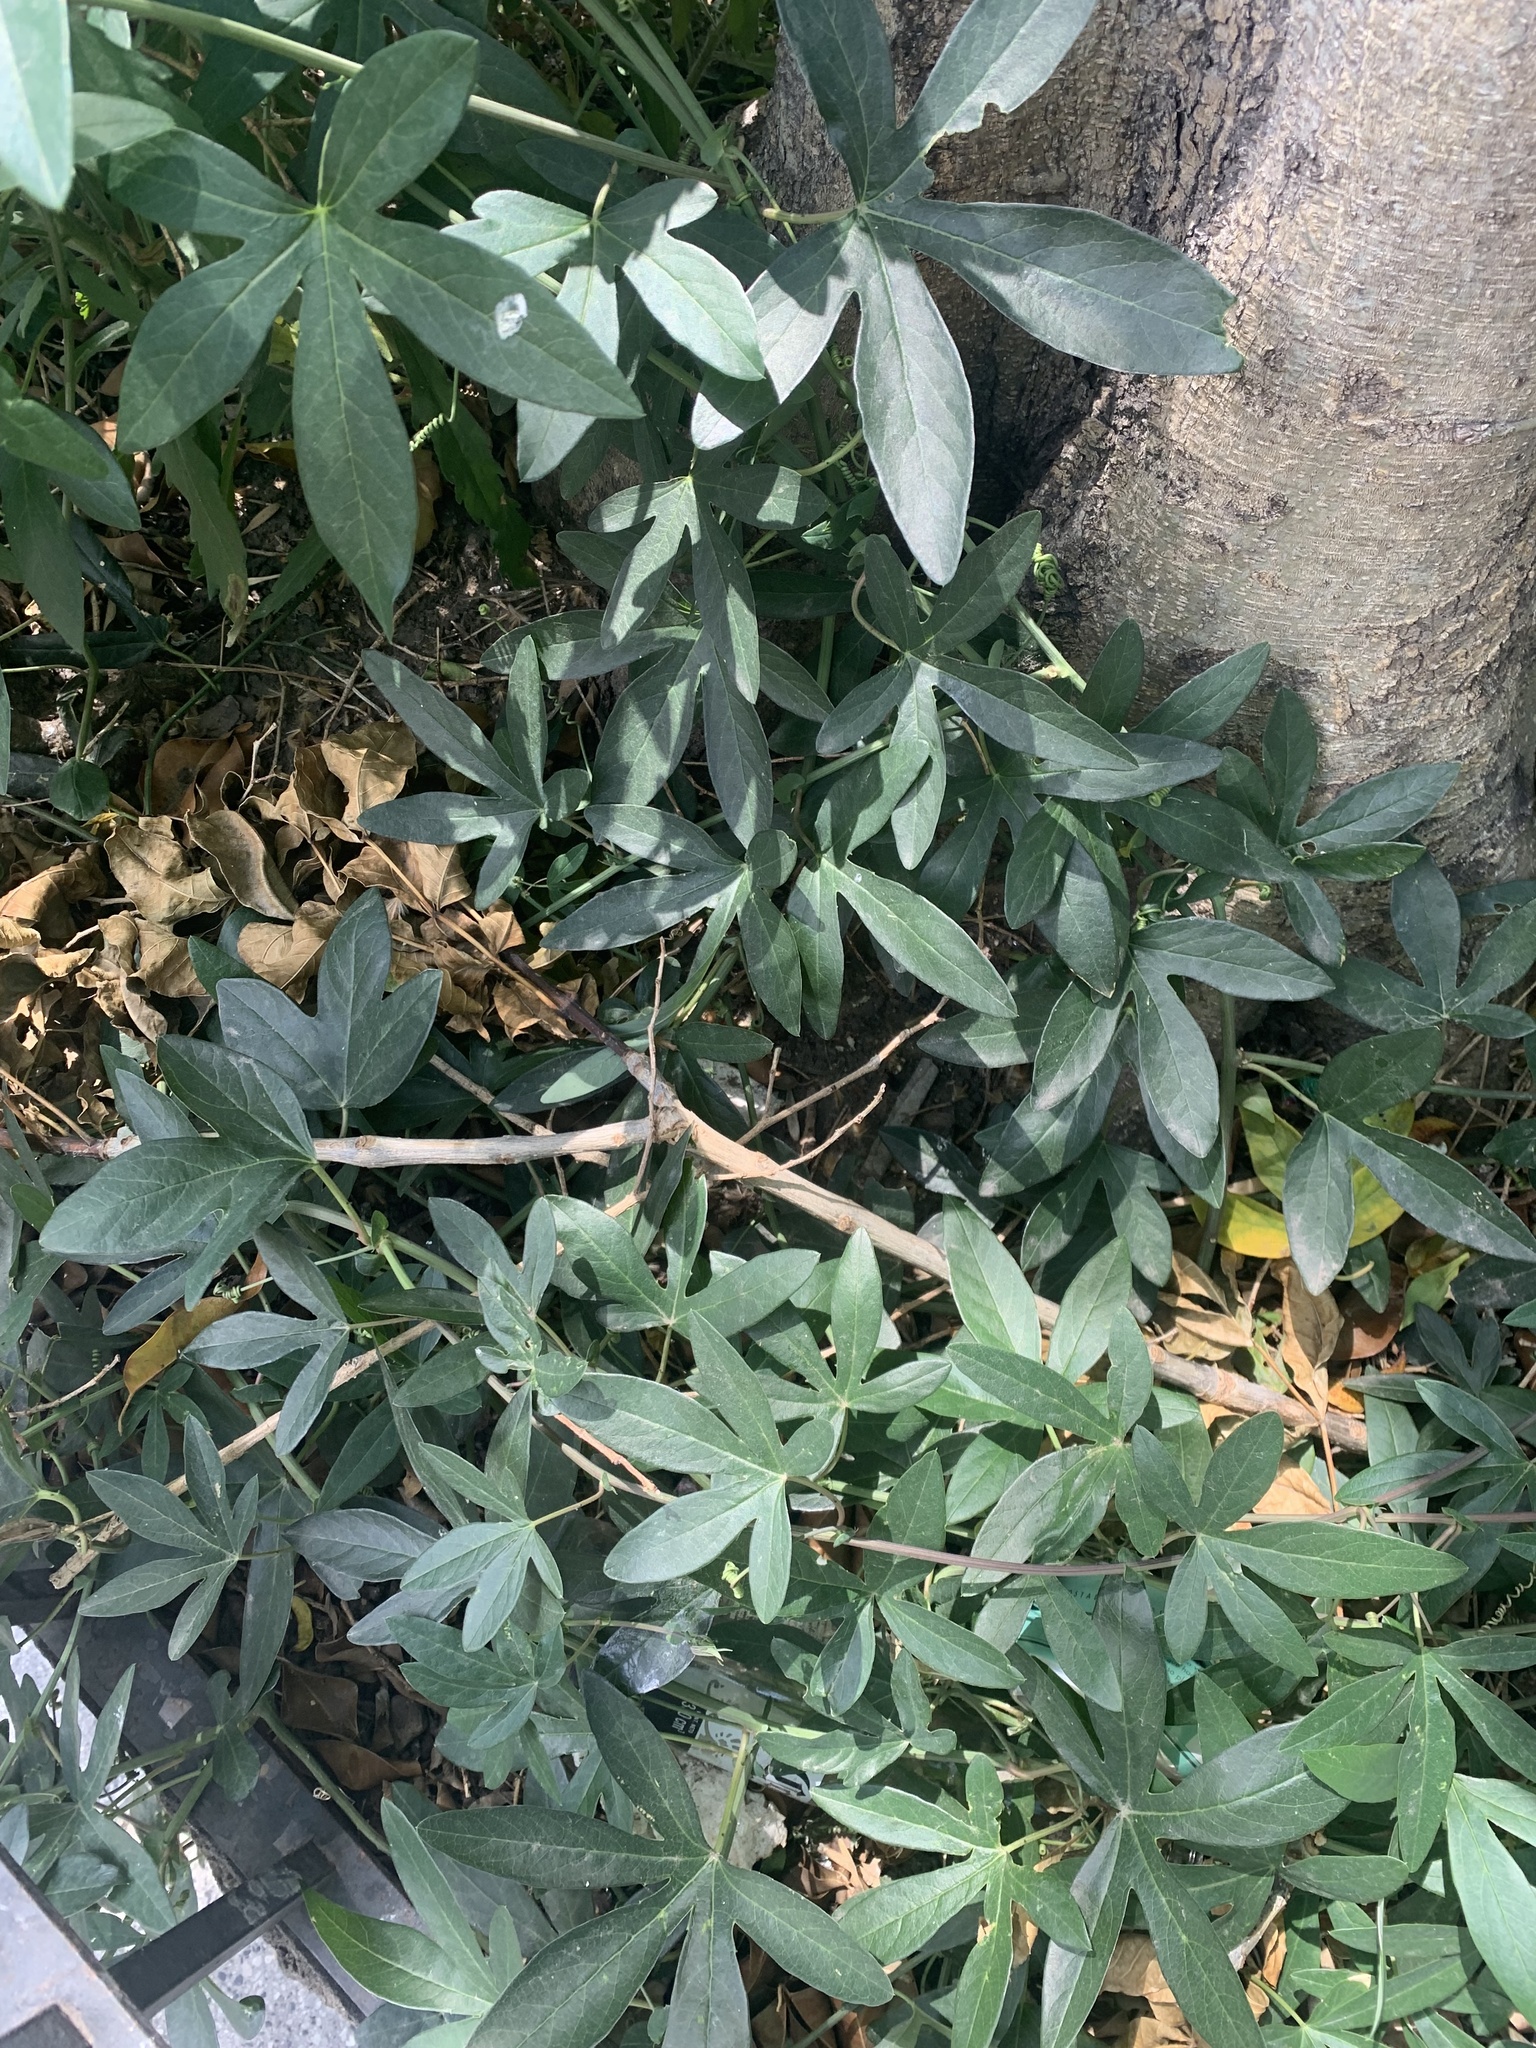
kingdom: Plantae
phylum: Tracheophyta
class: Magnoliopsida
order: Malpighiales
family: Passifloraceae
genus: Passiflora
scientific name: Passiflora caerulea
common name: Blue passionflower
